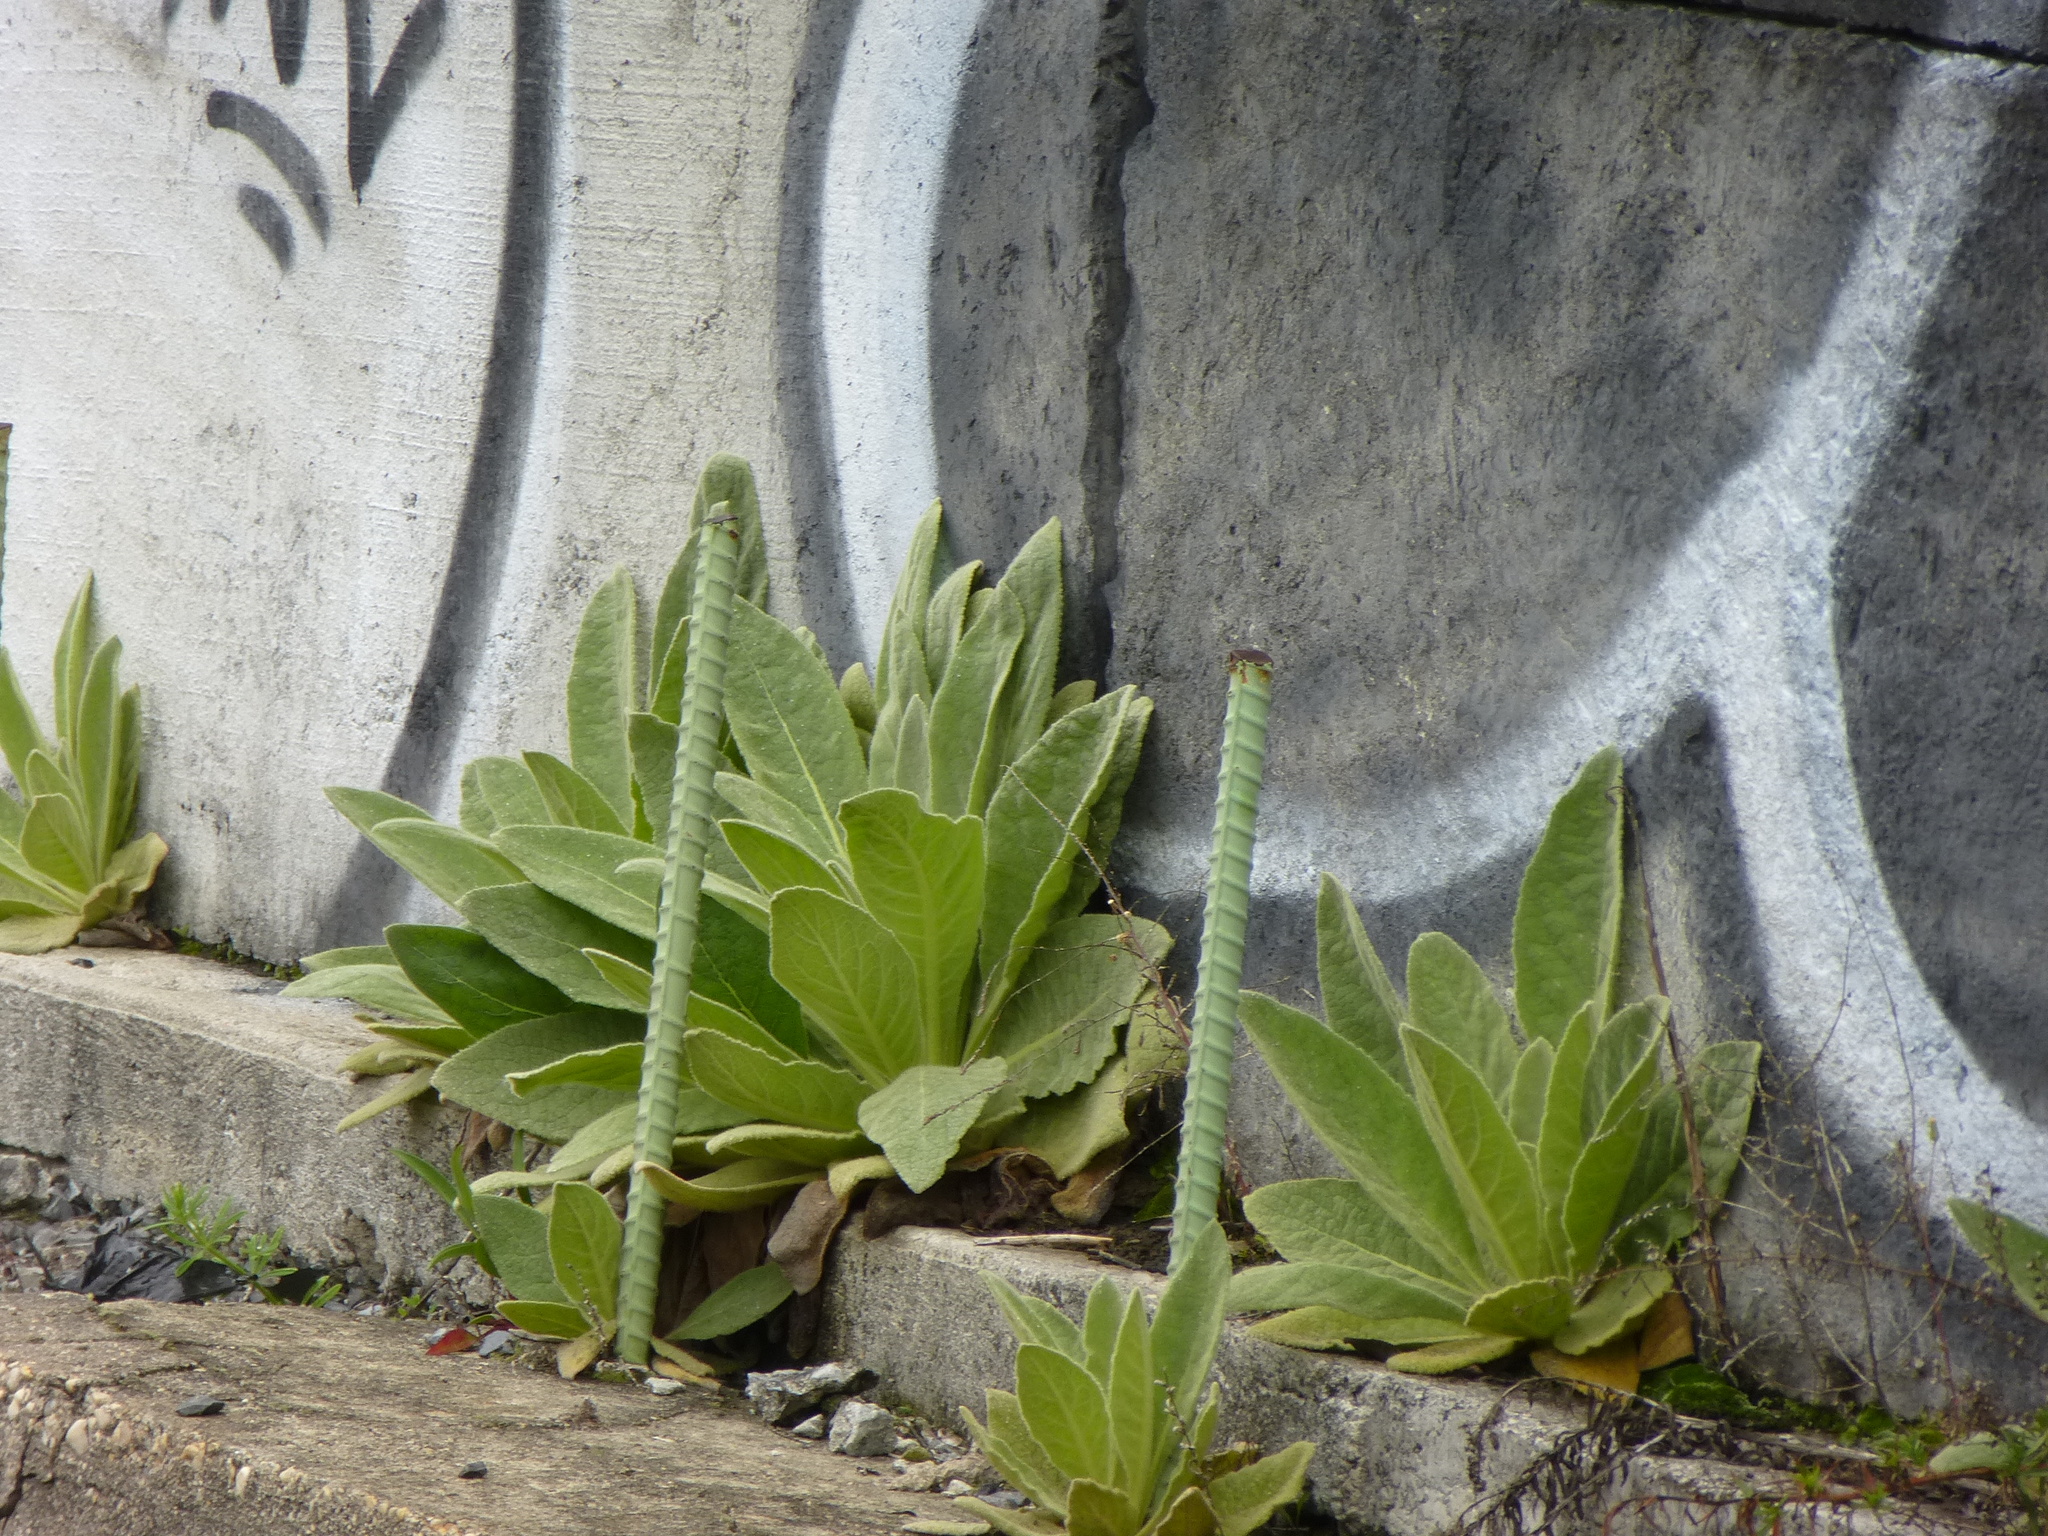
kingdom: Plantae
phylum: Tracheophyta
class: Magnoliopsida
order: Lamiales
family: Scrophulariaceae
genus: Verbascum
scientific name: Verbascum thapsus
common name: Common mullein
